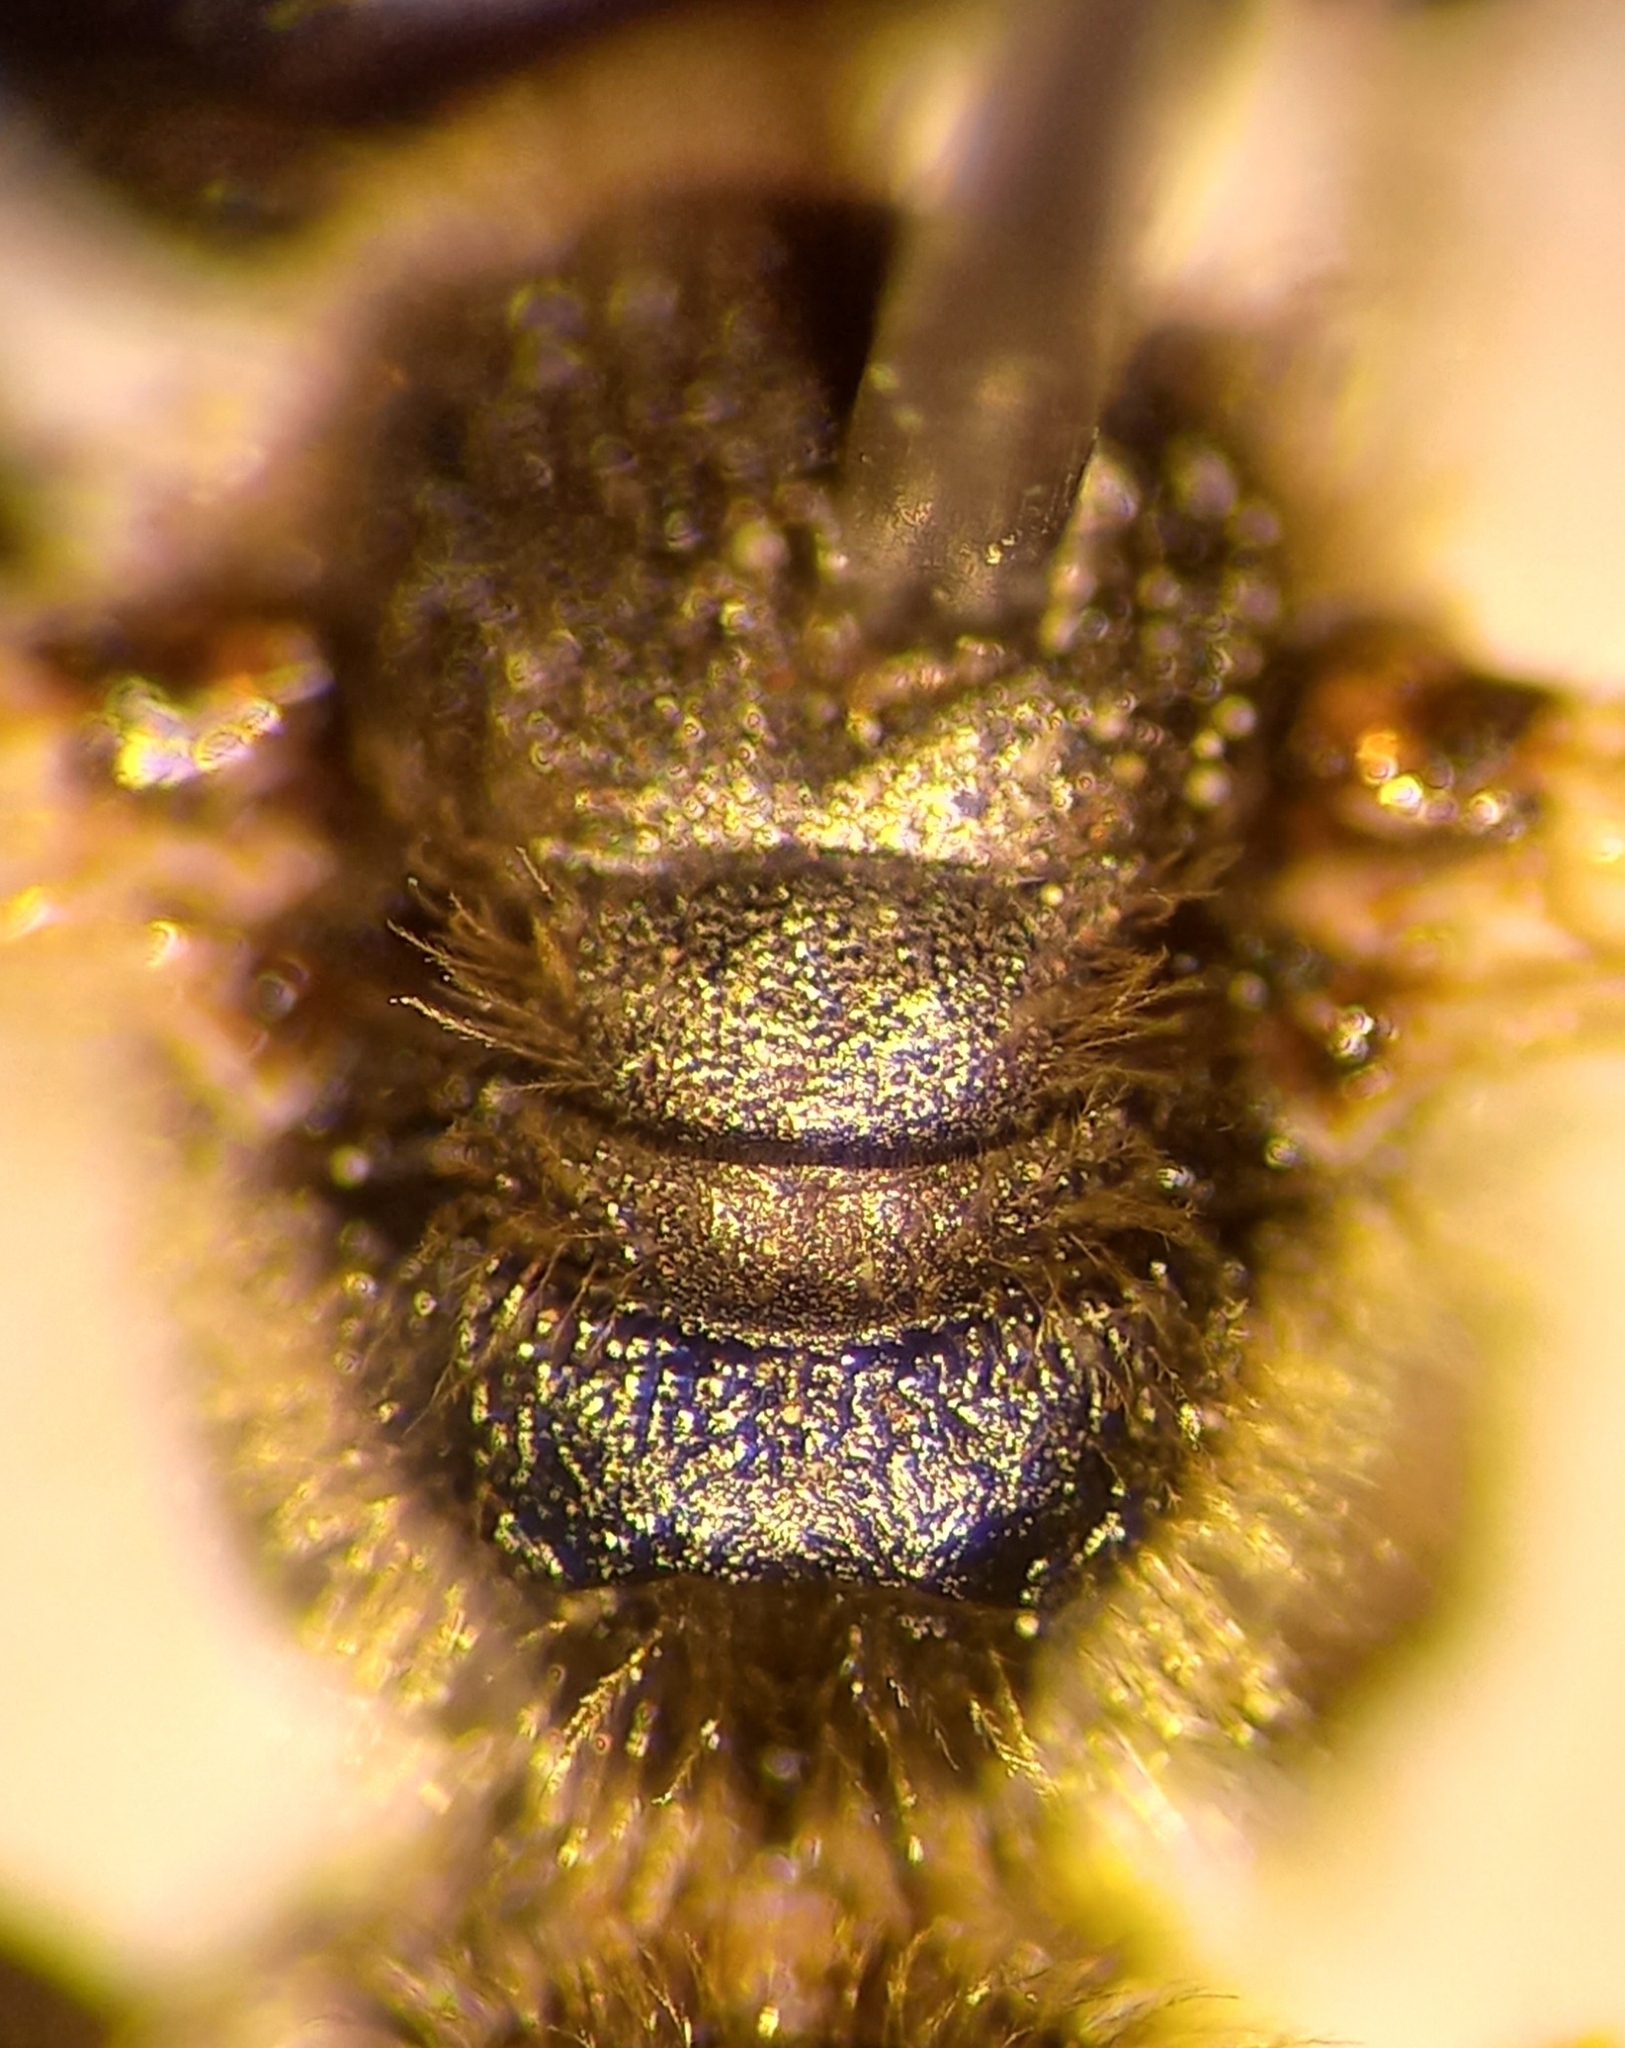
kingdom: Animalia
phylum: Arthropoda
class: Insecta
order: Hymenoptera
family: Halictidae
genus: Lasioglossum
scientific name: Lasioglossum malachurum
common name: Sharp-collared furrow bee
